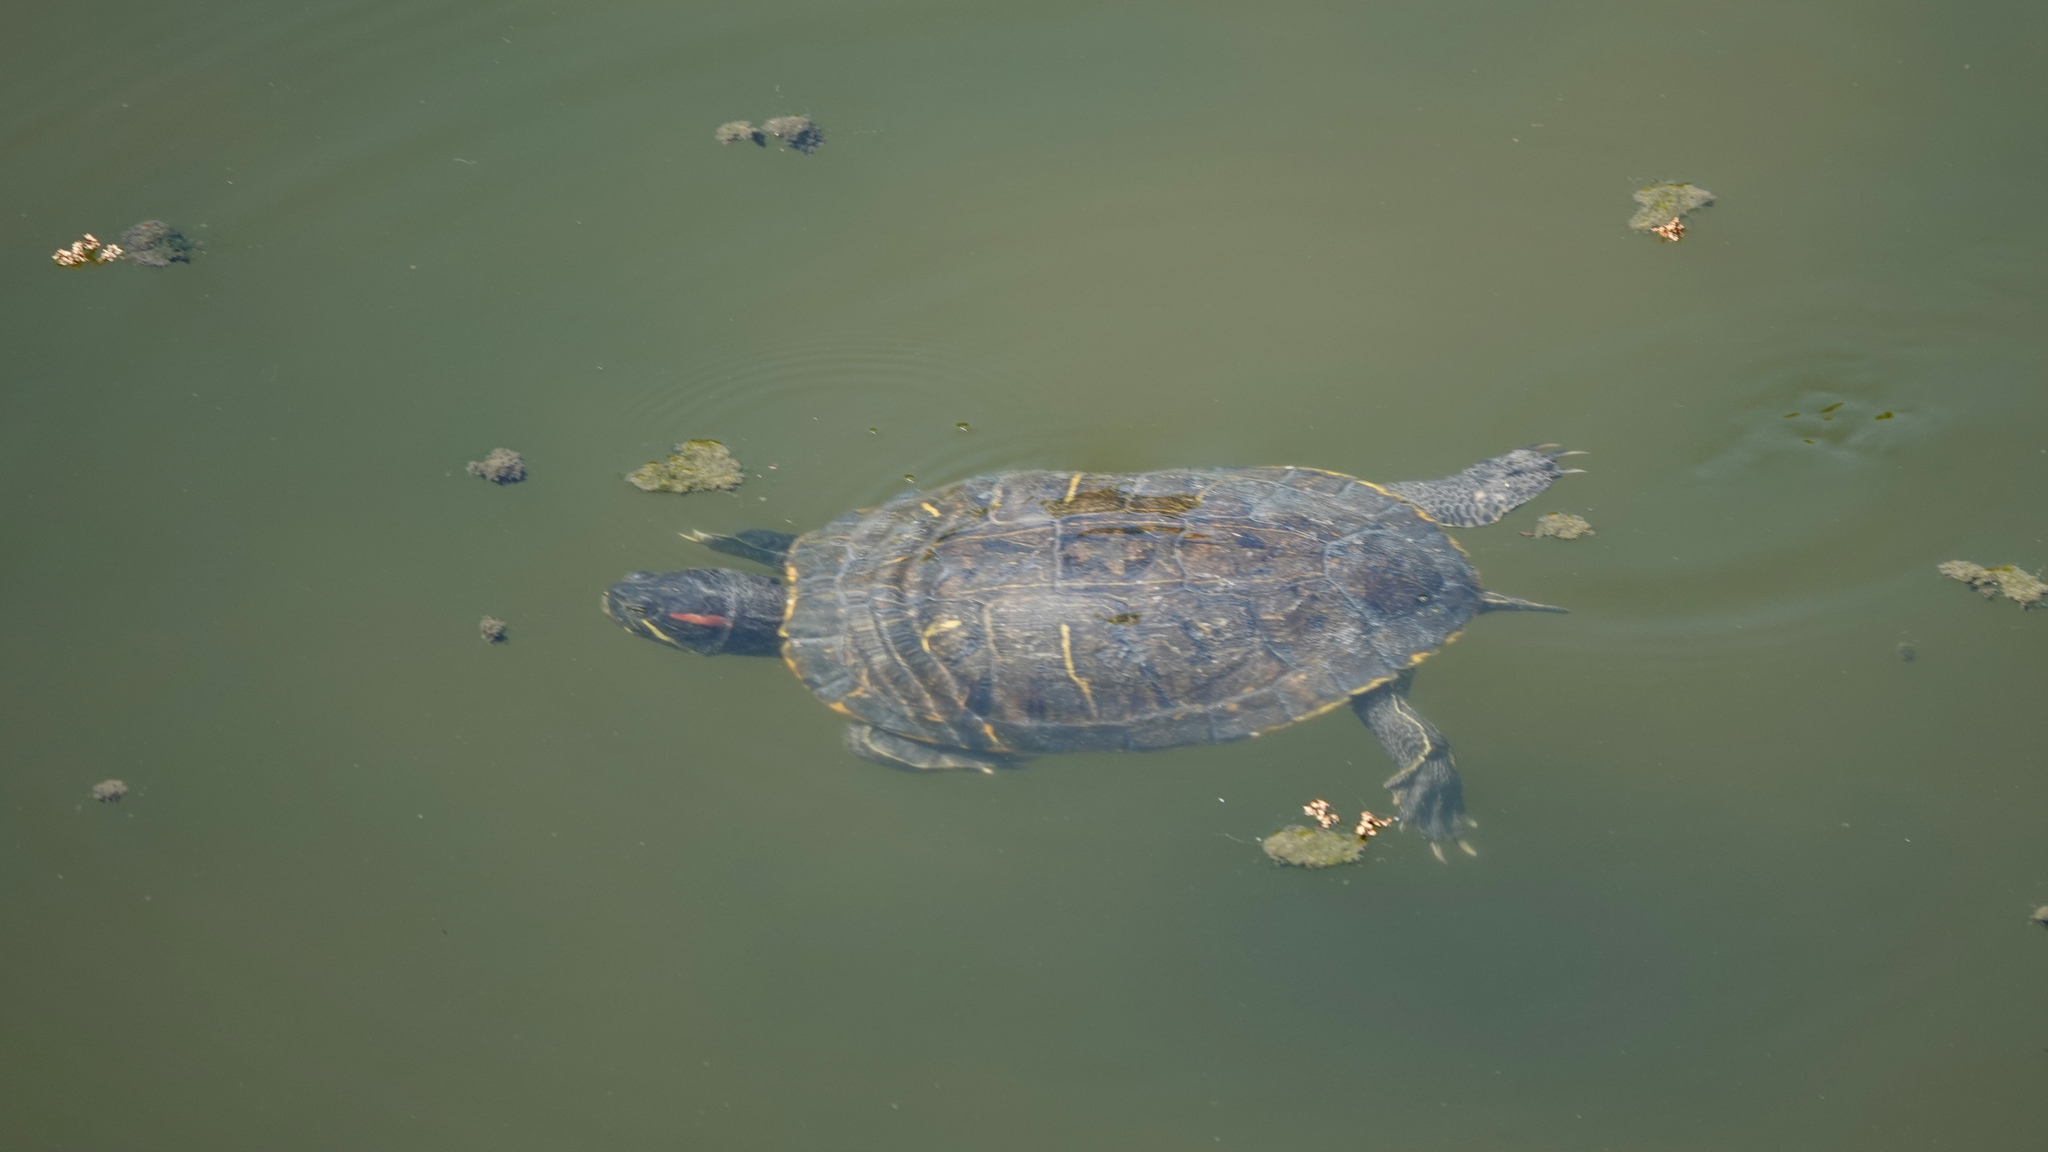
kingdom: Animalia
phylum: Chordata
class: Testudines
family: Emydidae
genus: Trachemys
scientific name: Trachemys scripta
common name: Slider
